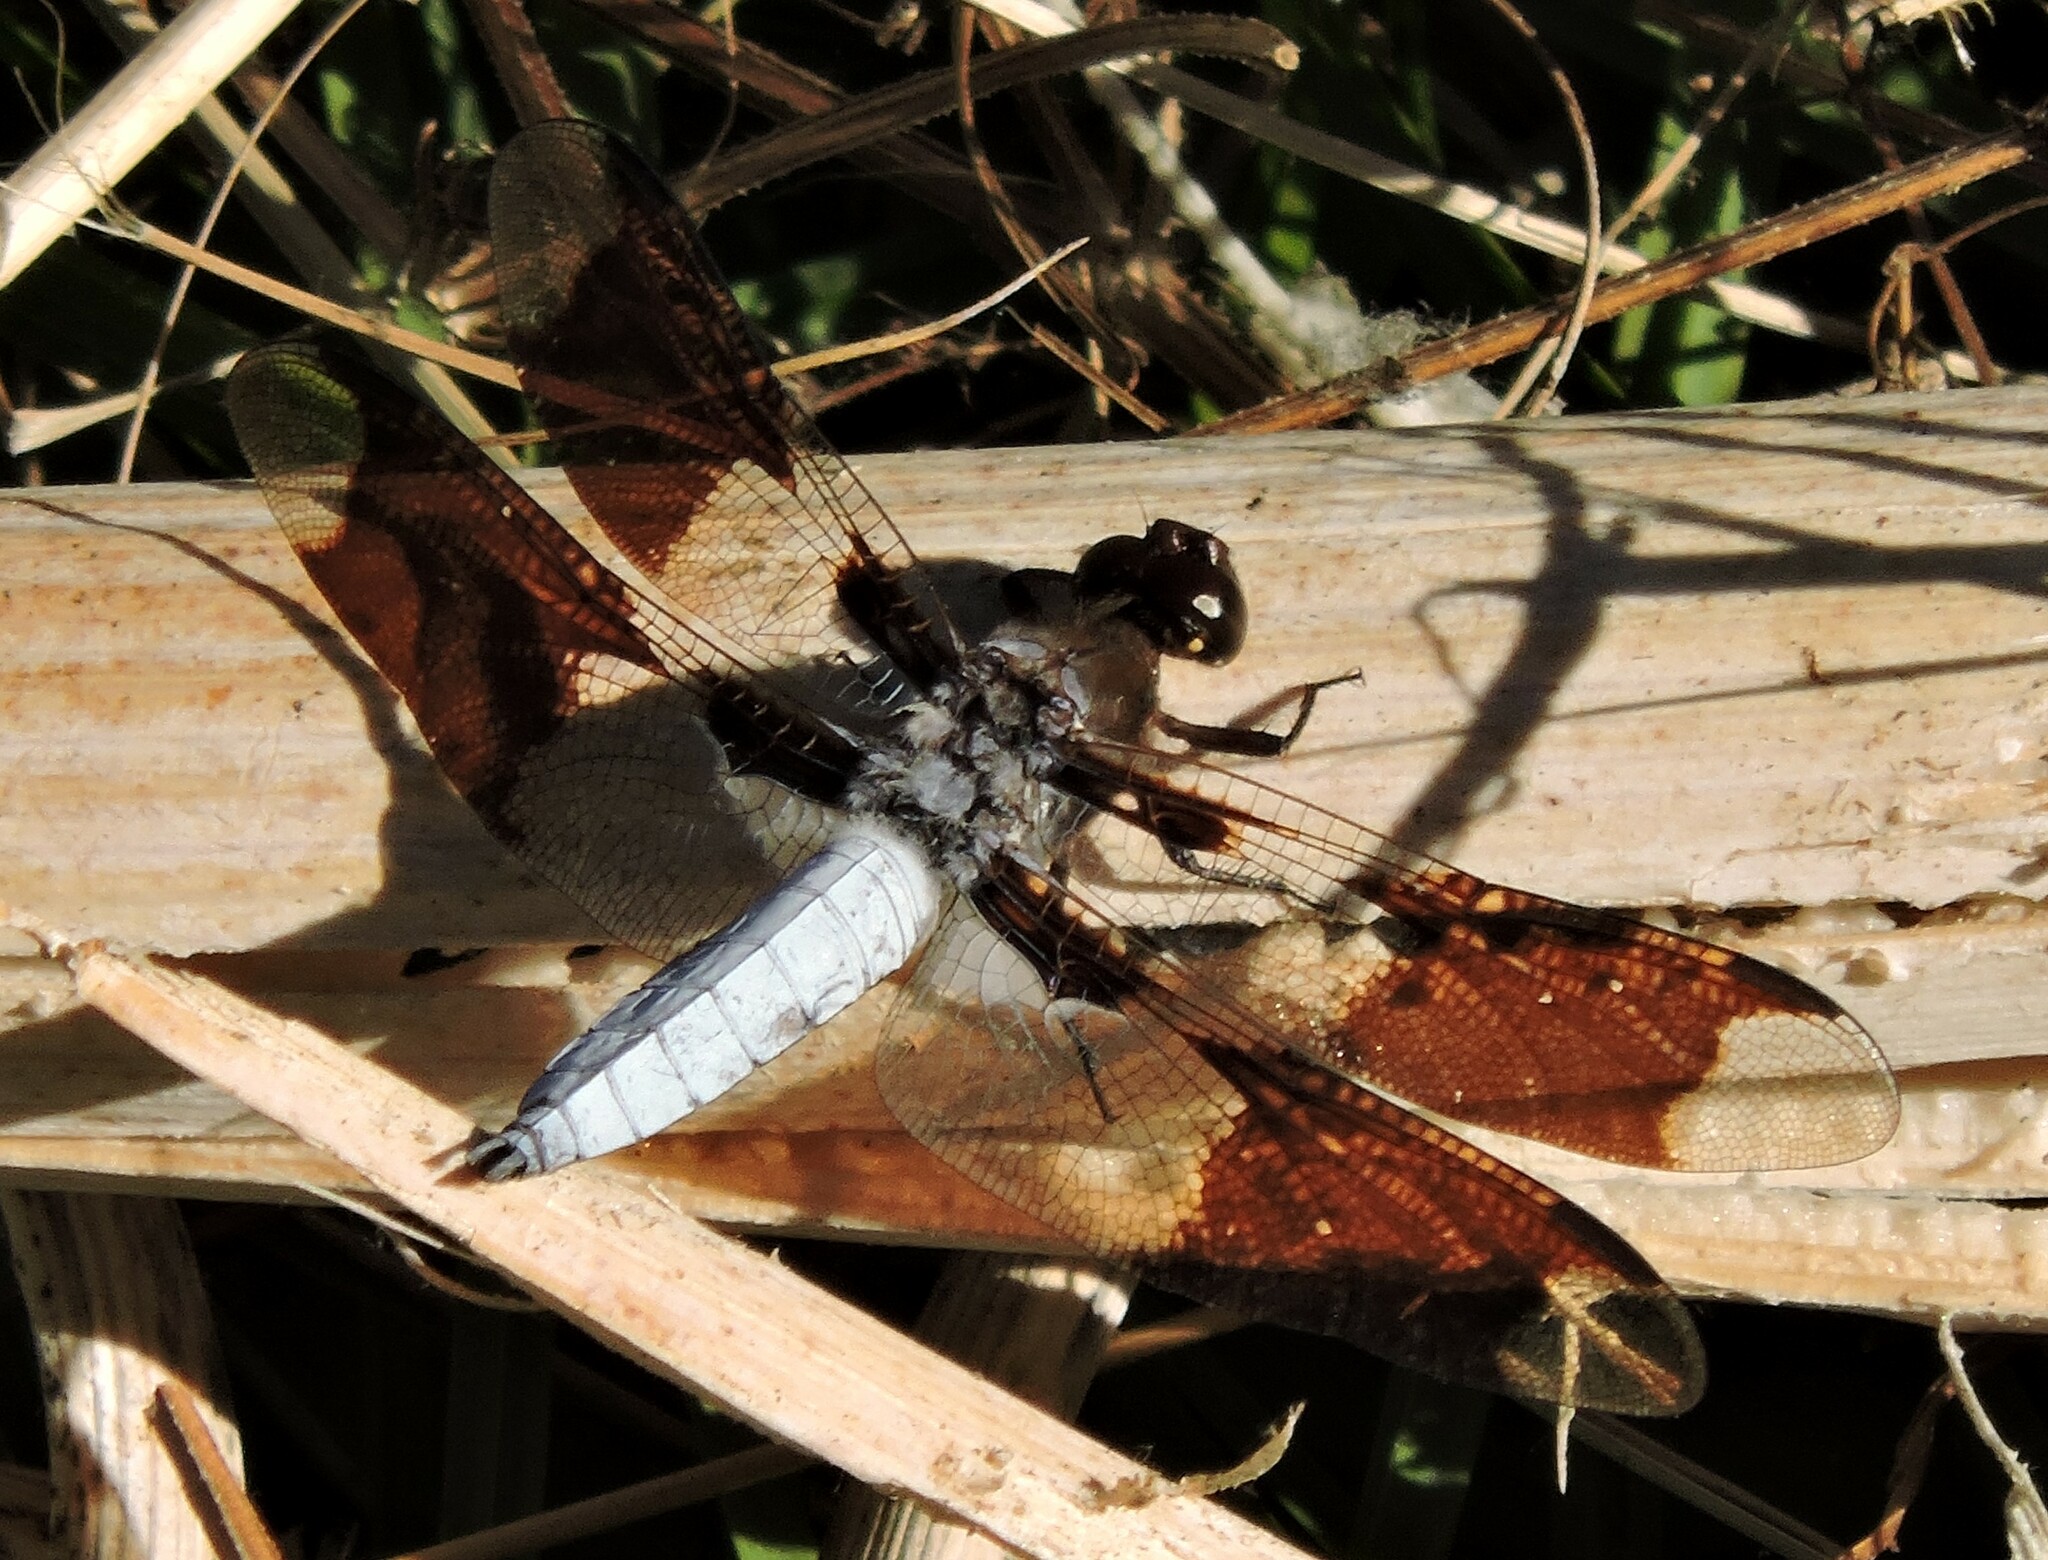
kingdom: Animalia
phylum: Arthropoda
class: Insecta
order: Odonata
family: Libellulidae
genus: Plathemis
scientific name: Plathemis lydia
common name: Common whitetail
